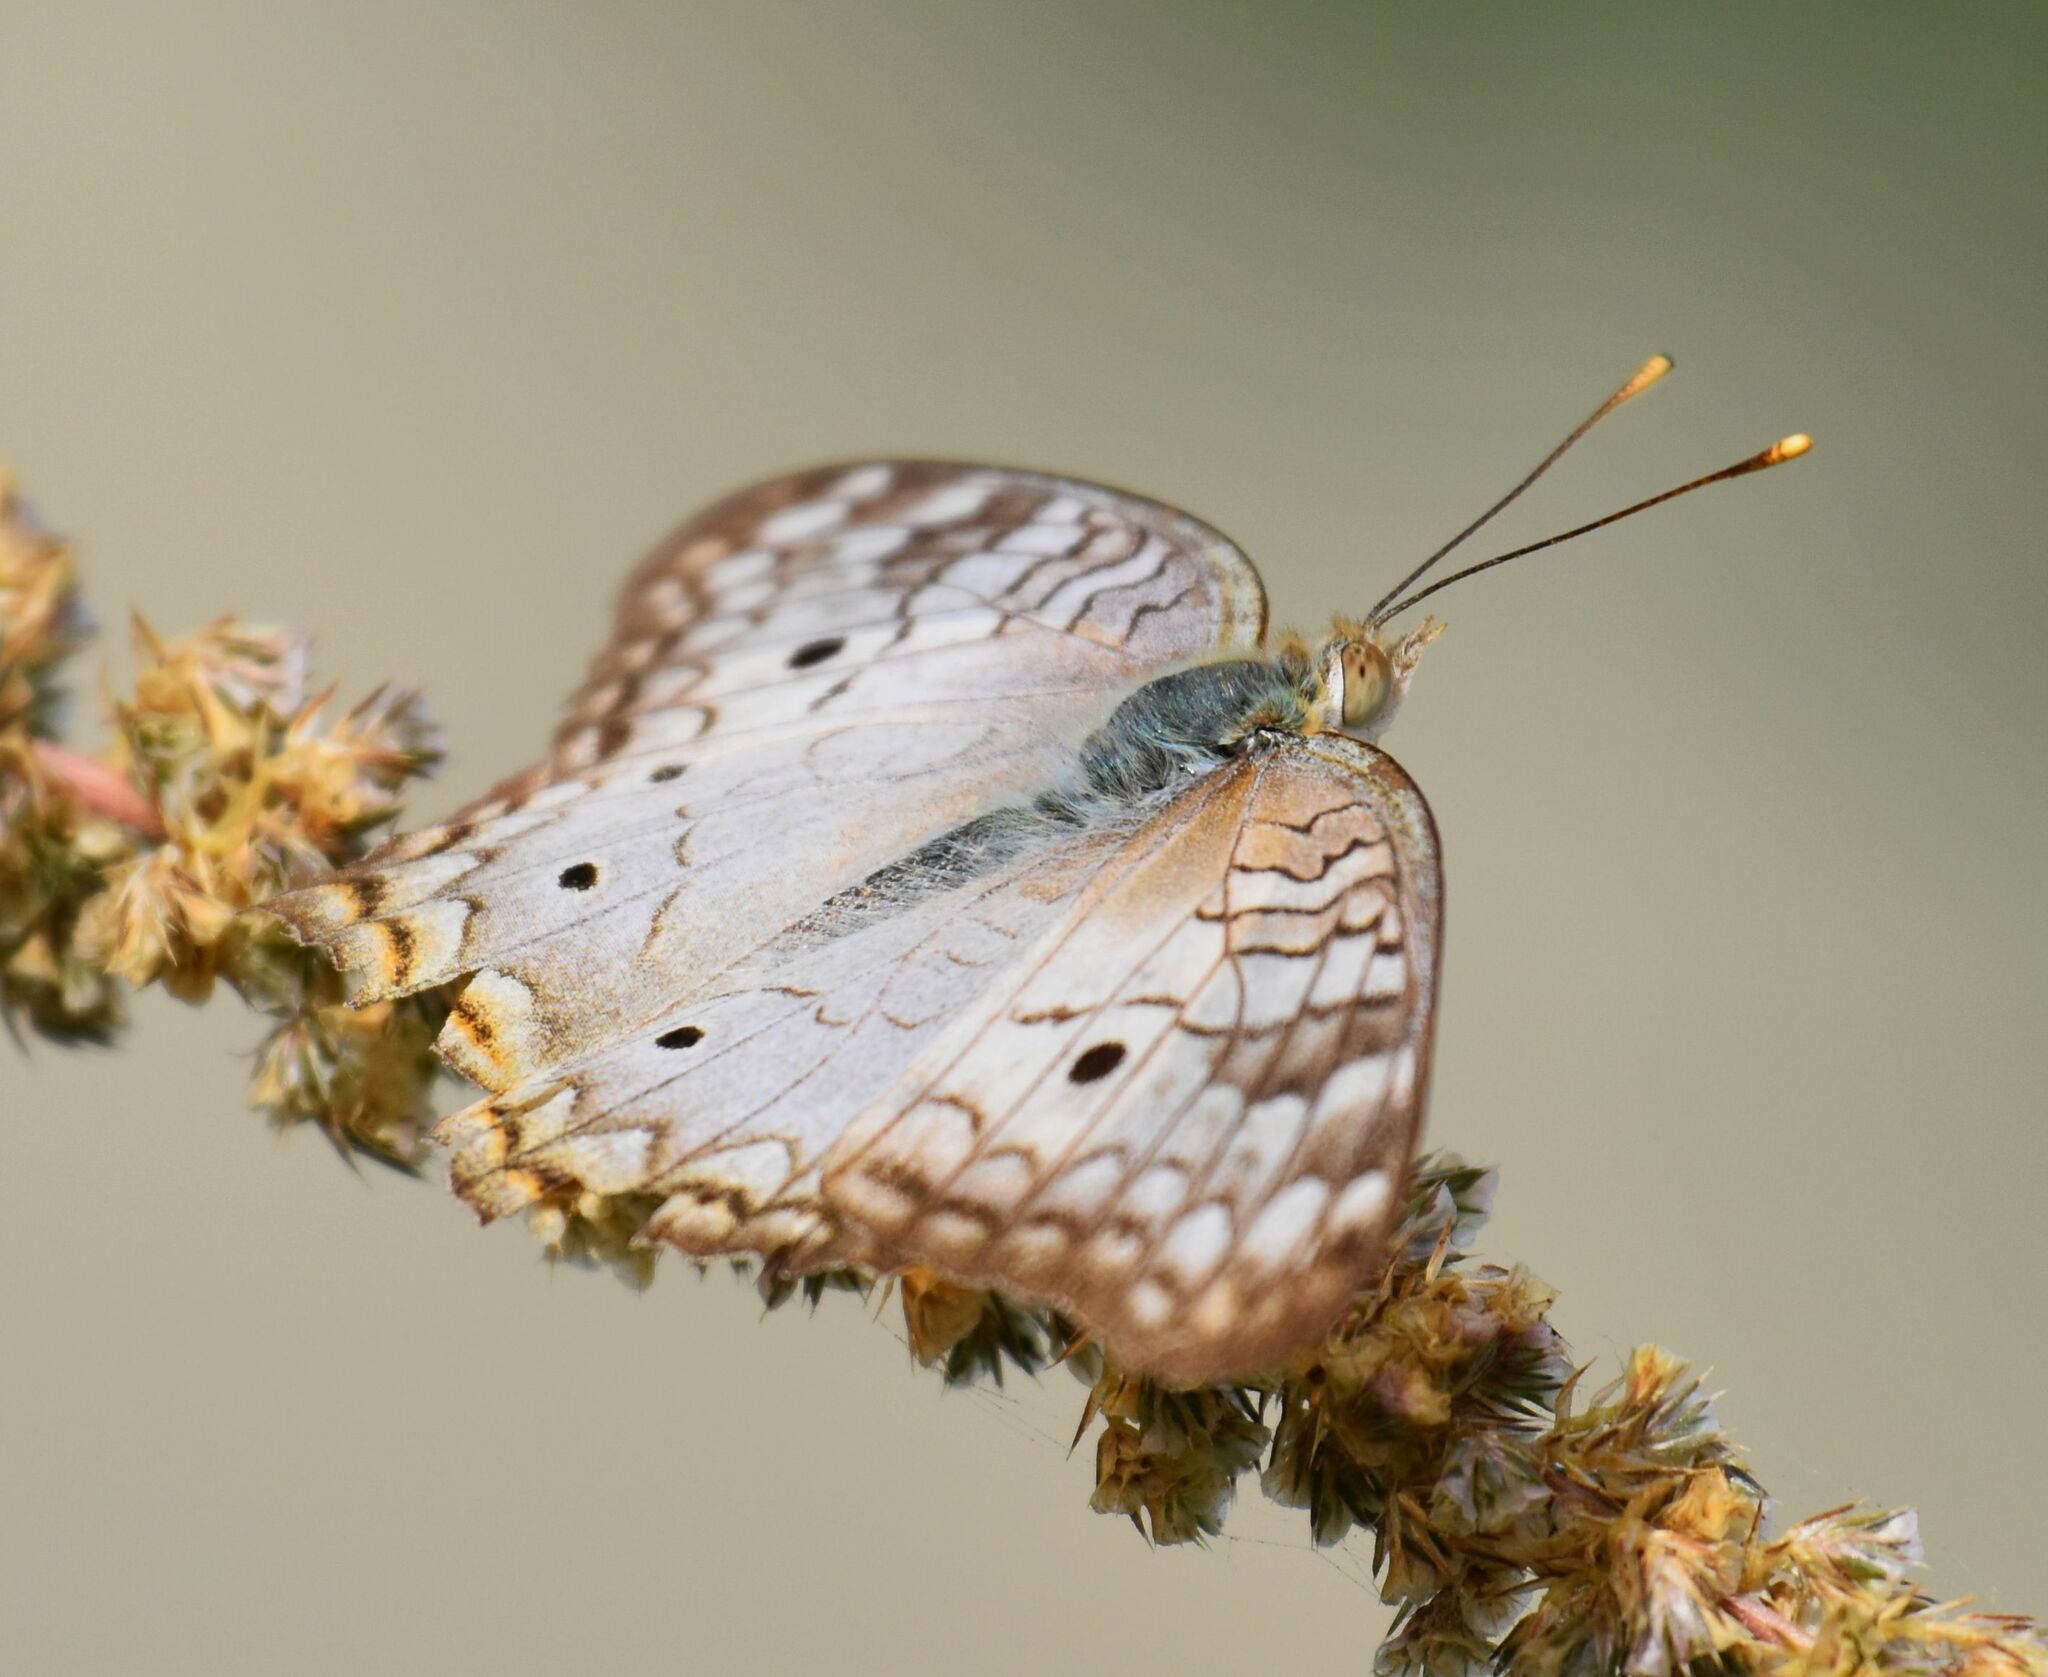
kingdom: Animalia
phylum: Arthropoda
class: Insecta
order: Lepidoptera
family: Nymphalidae
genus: Anartia
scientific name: Anartia jatrophae
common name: White peacock
